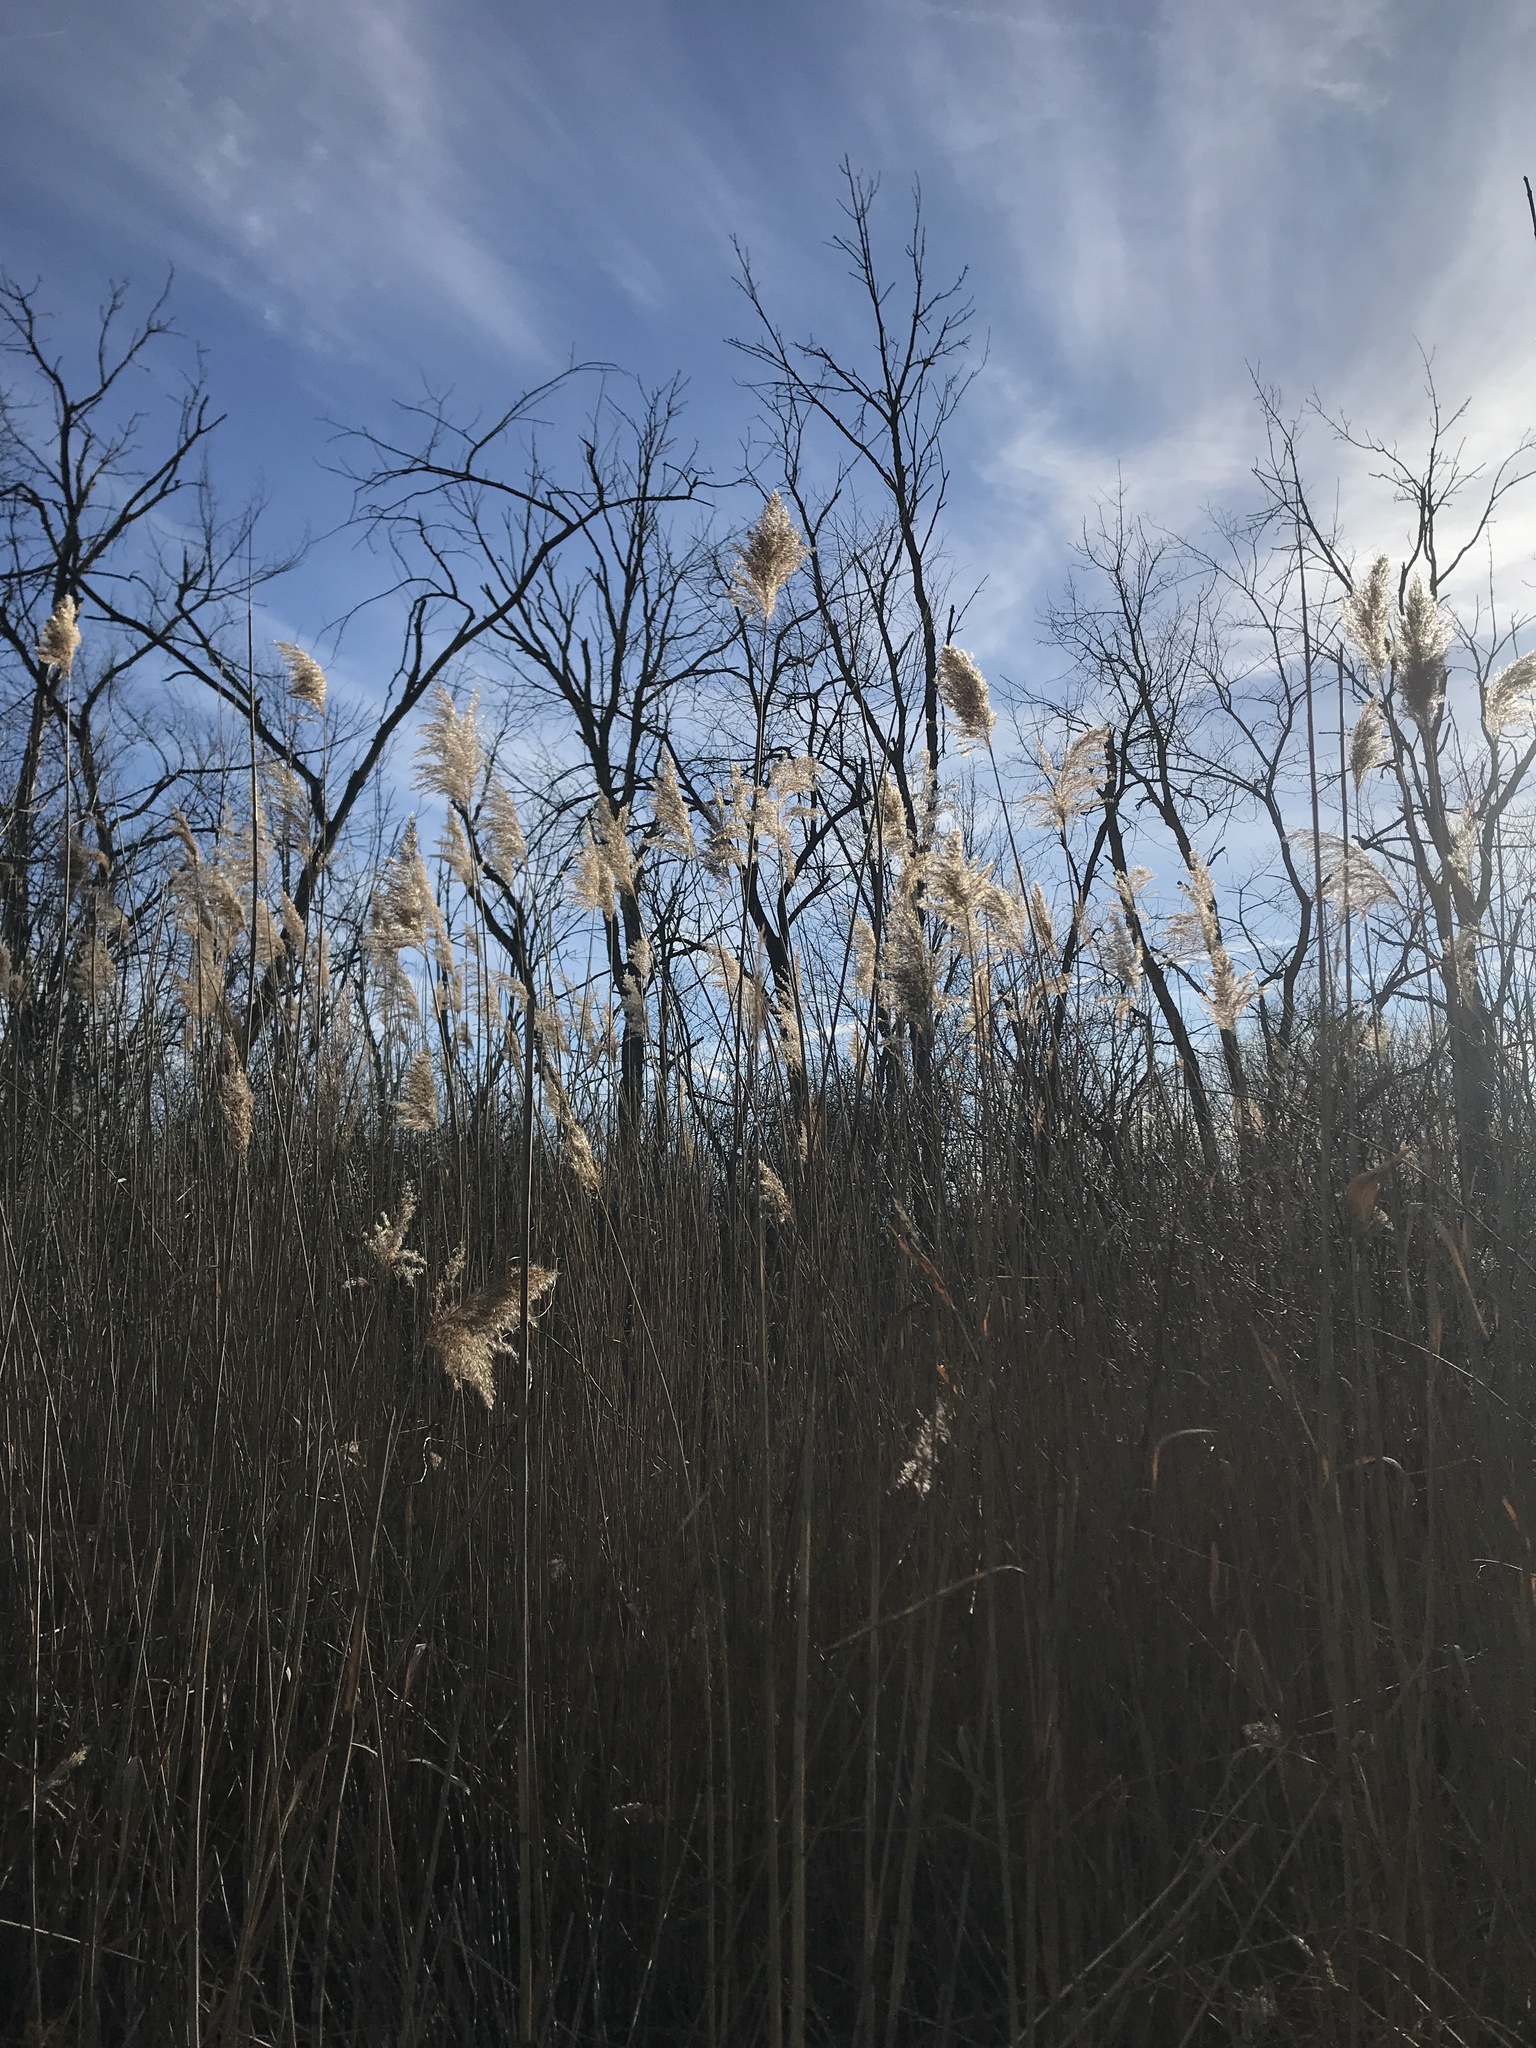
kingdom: Plantae
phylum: Tracheophyta
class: Liliopsida
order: Poales
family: Poaceae
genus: Phragmites
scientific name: Phragmites australis
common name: Common reed
